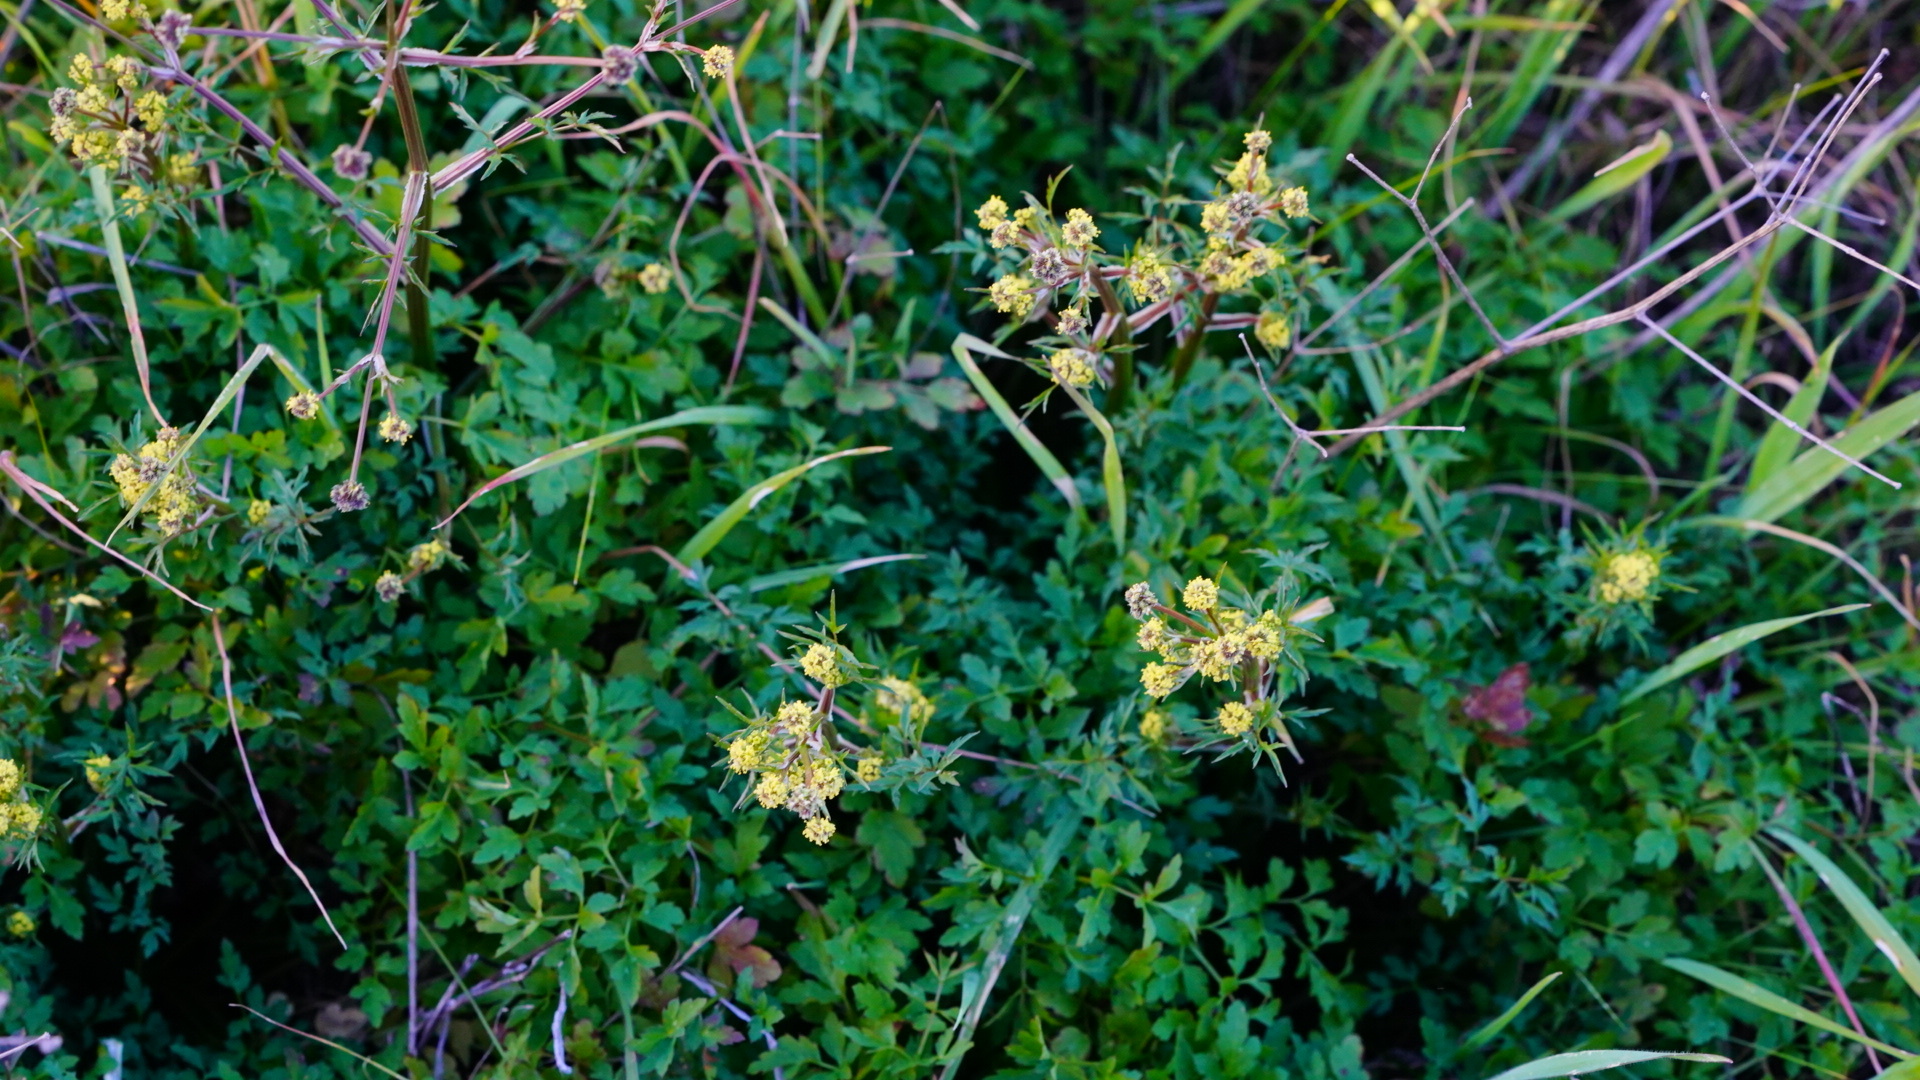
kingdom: Plantae
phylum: Tracheophyta
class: Magnoliopsida
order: Apiales
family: Apiaceae
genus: Sanicula
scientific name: Sanicula bipinnata
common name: Poison sanicle
